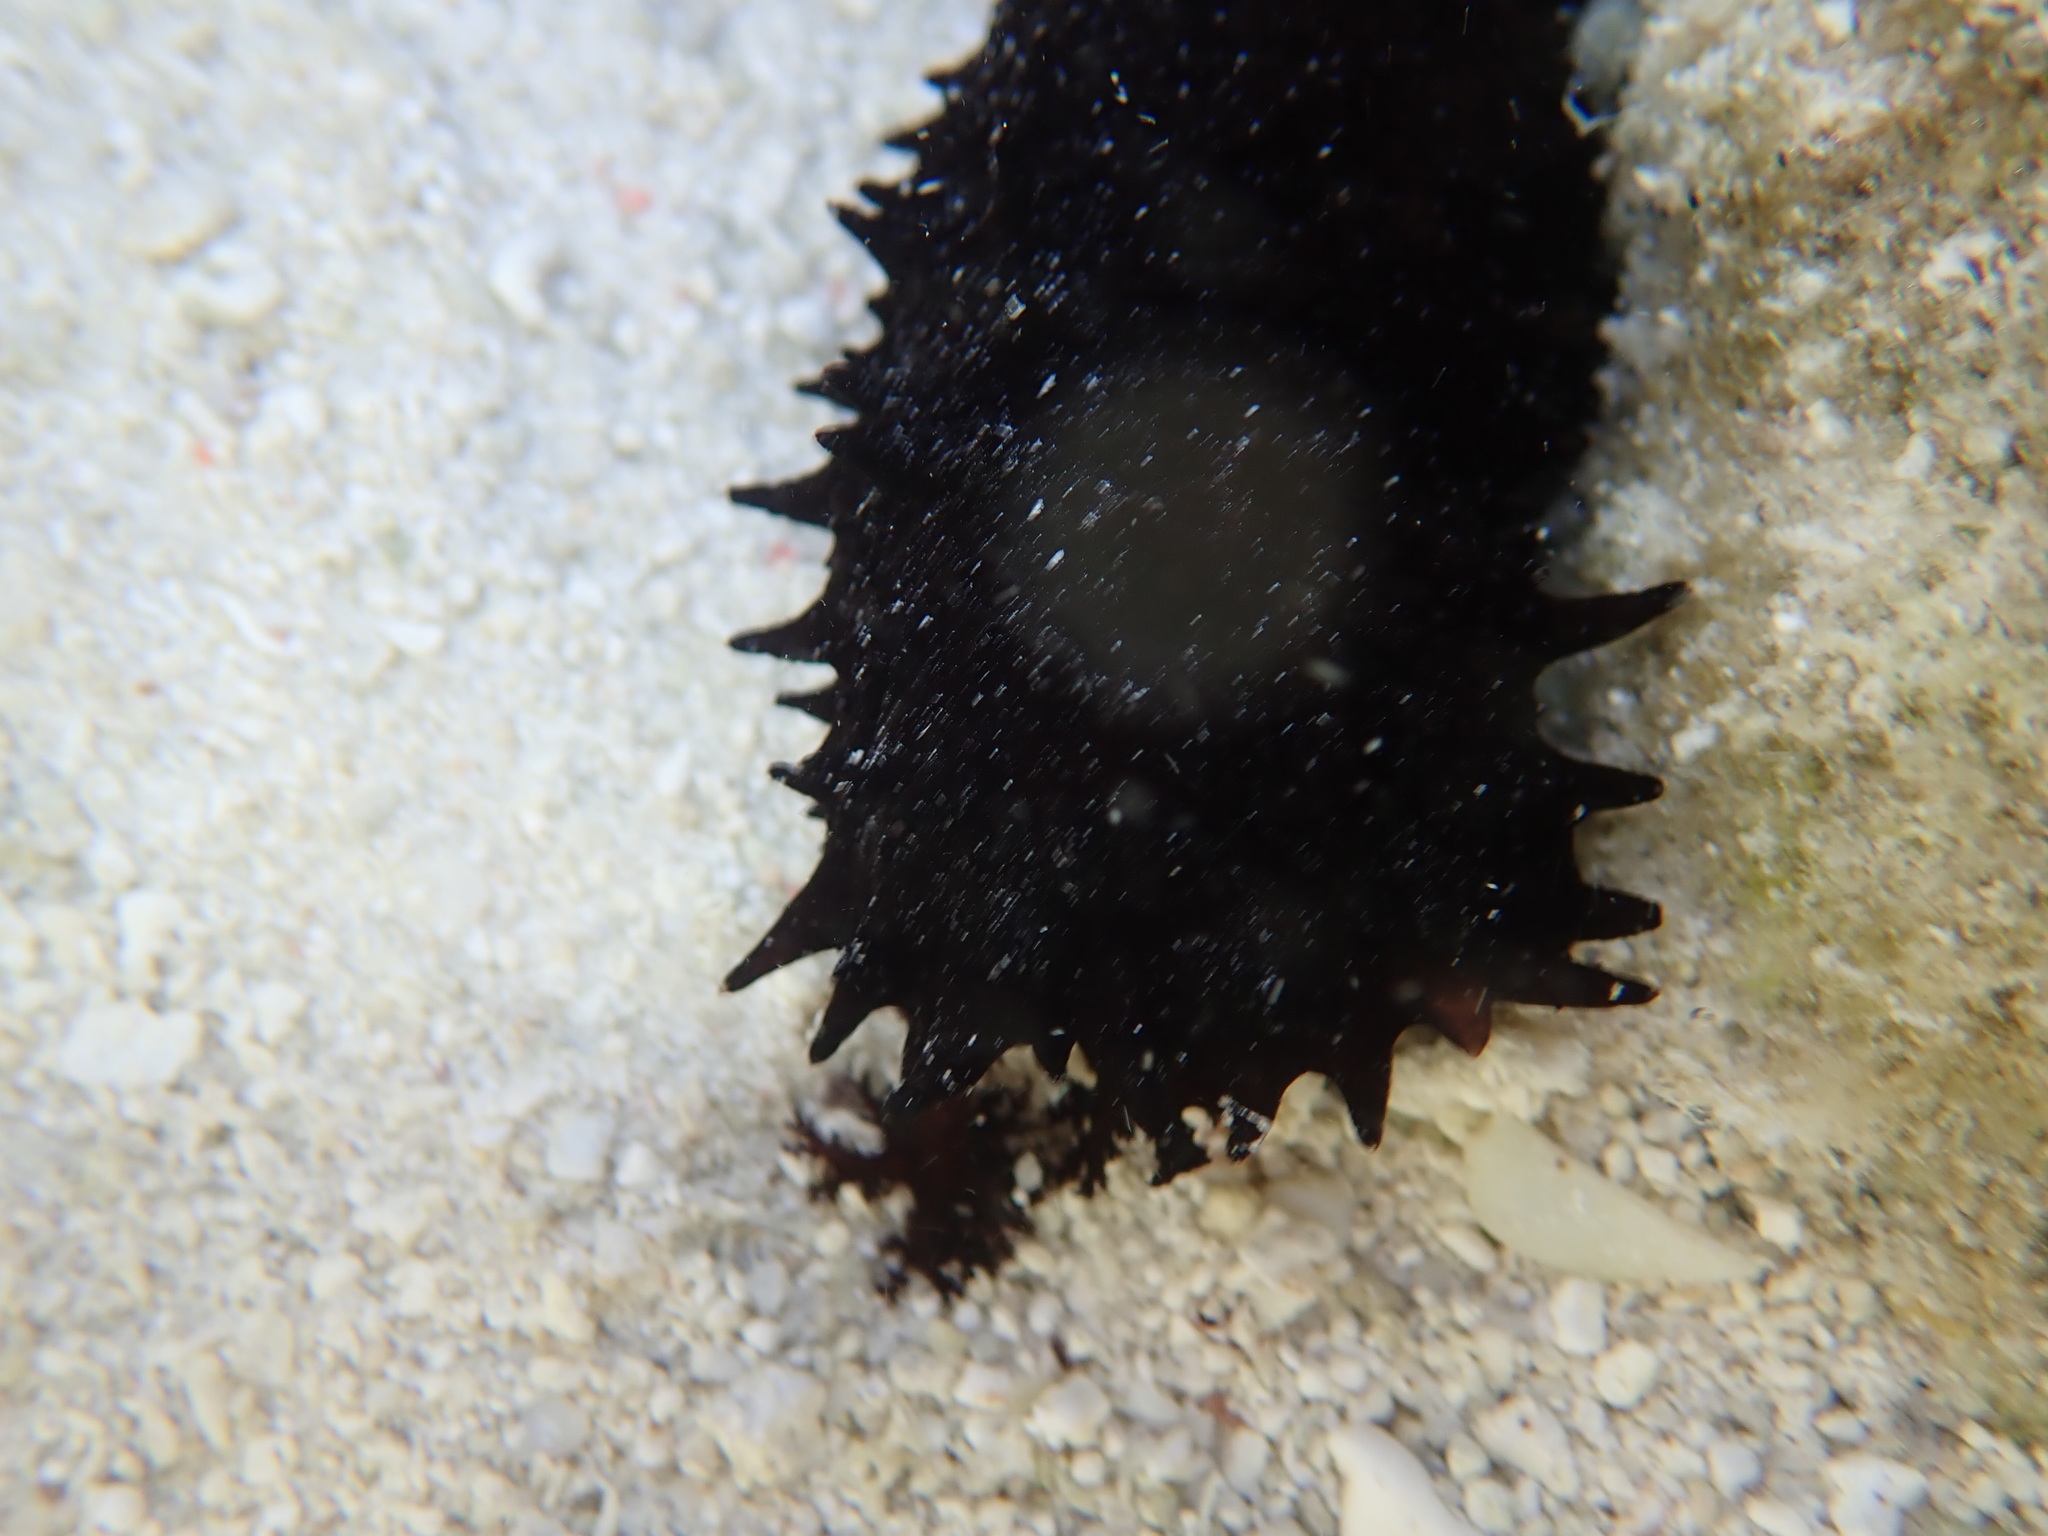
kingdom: Animalia
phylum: Echinodermata
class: Holothuroidea
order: Holothuriida
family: Holothuriidae
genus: Holothuria
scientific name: Holothuria leucospilota
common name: White thread fish
